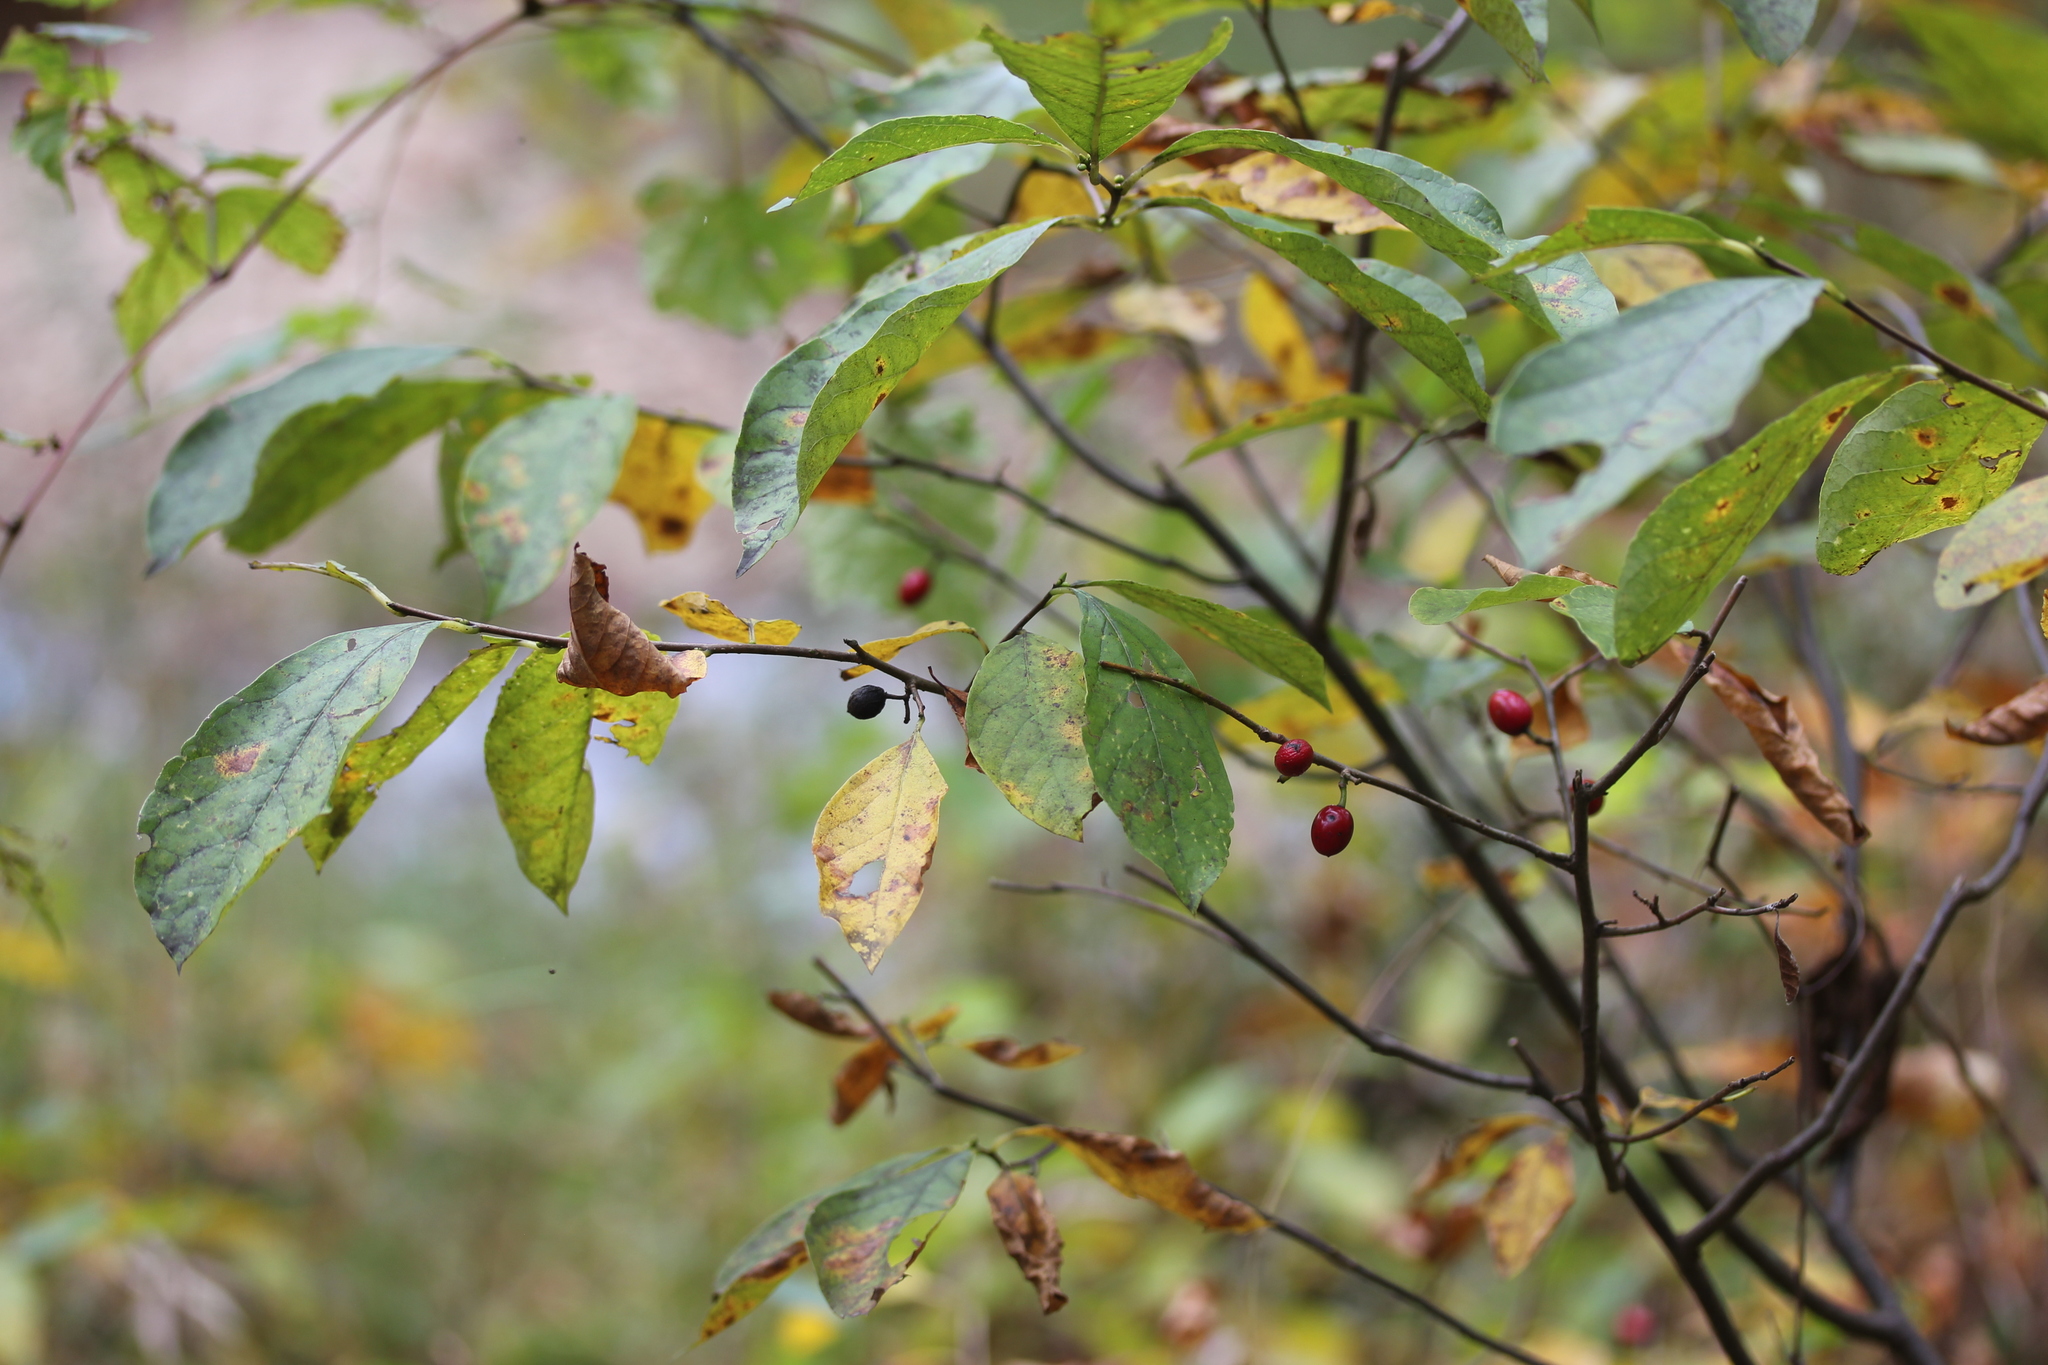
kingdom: Plantae
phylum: Tracheophyta
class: Magnoliopsida
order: Laurales
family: Lauraceae
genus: Lindera
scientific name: Lindera benzoin
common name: Spicebush
